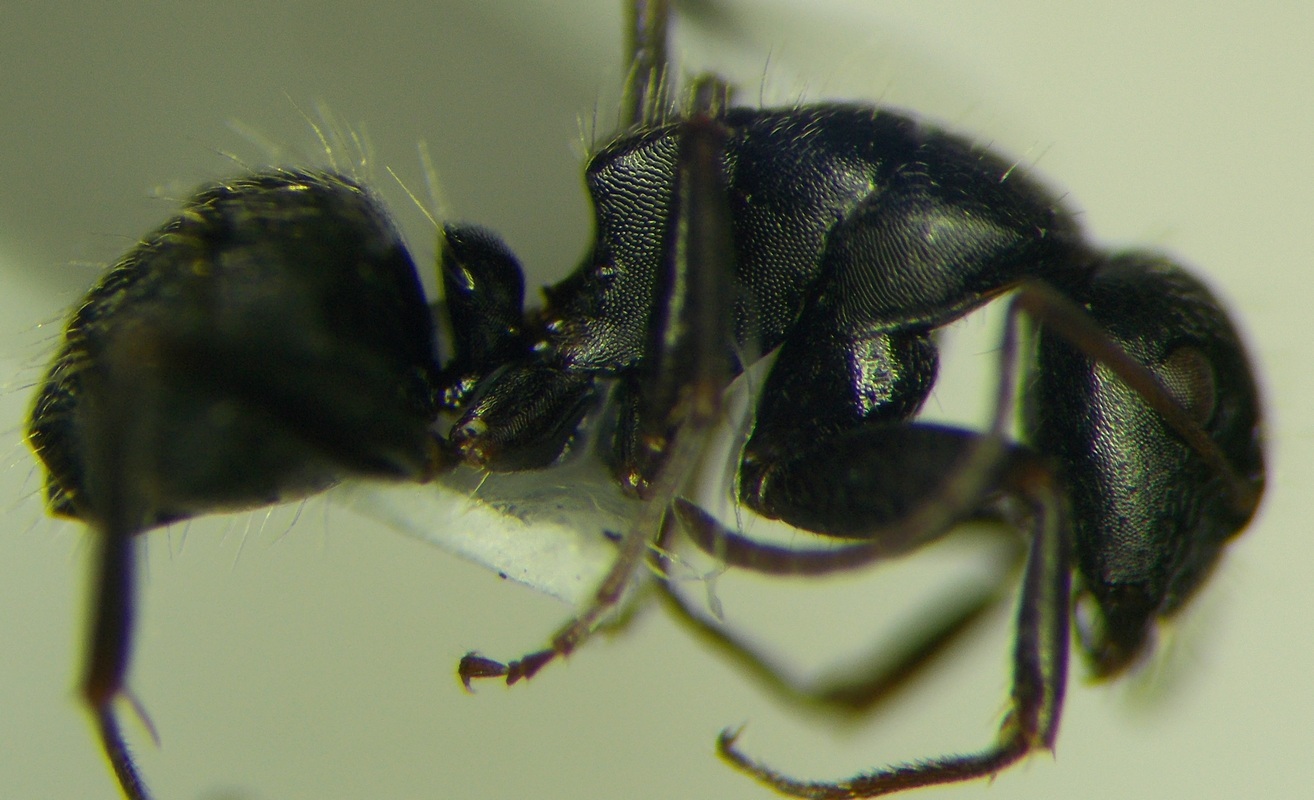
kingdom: Animalia
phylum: Arthropoda
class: Insecta
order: Hymenoptera
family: Formicidae
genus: Camponotus
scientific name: Camponotus libanicus
